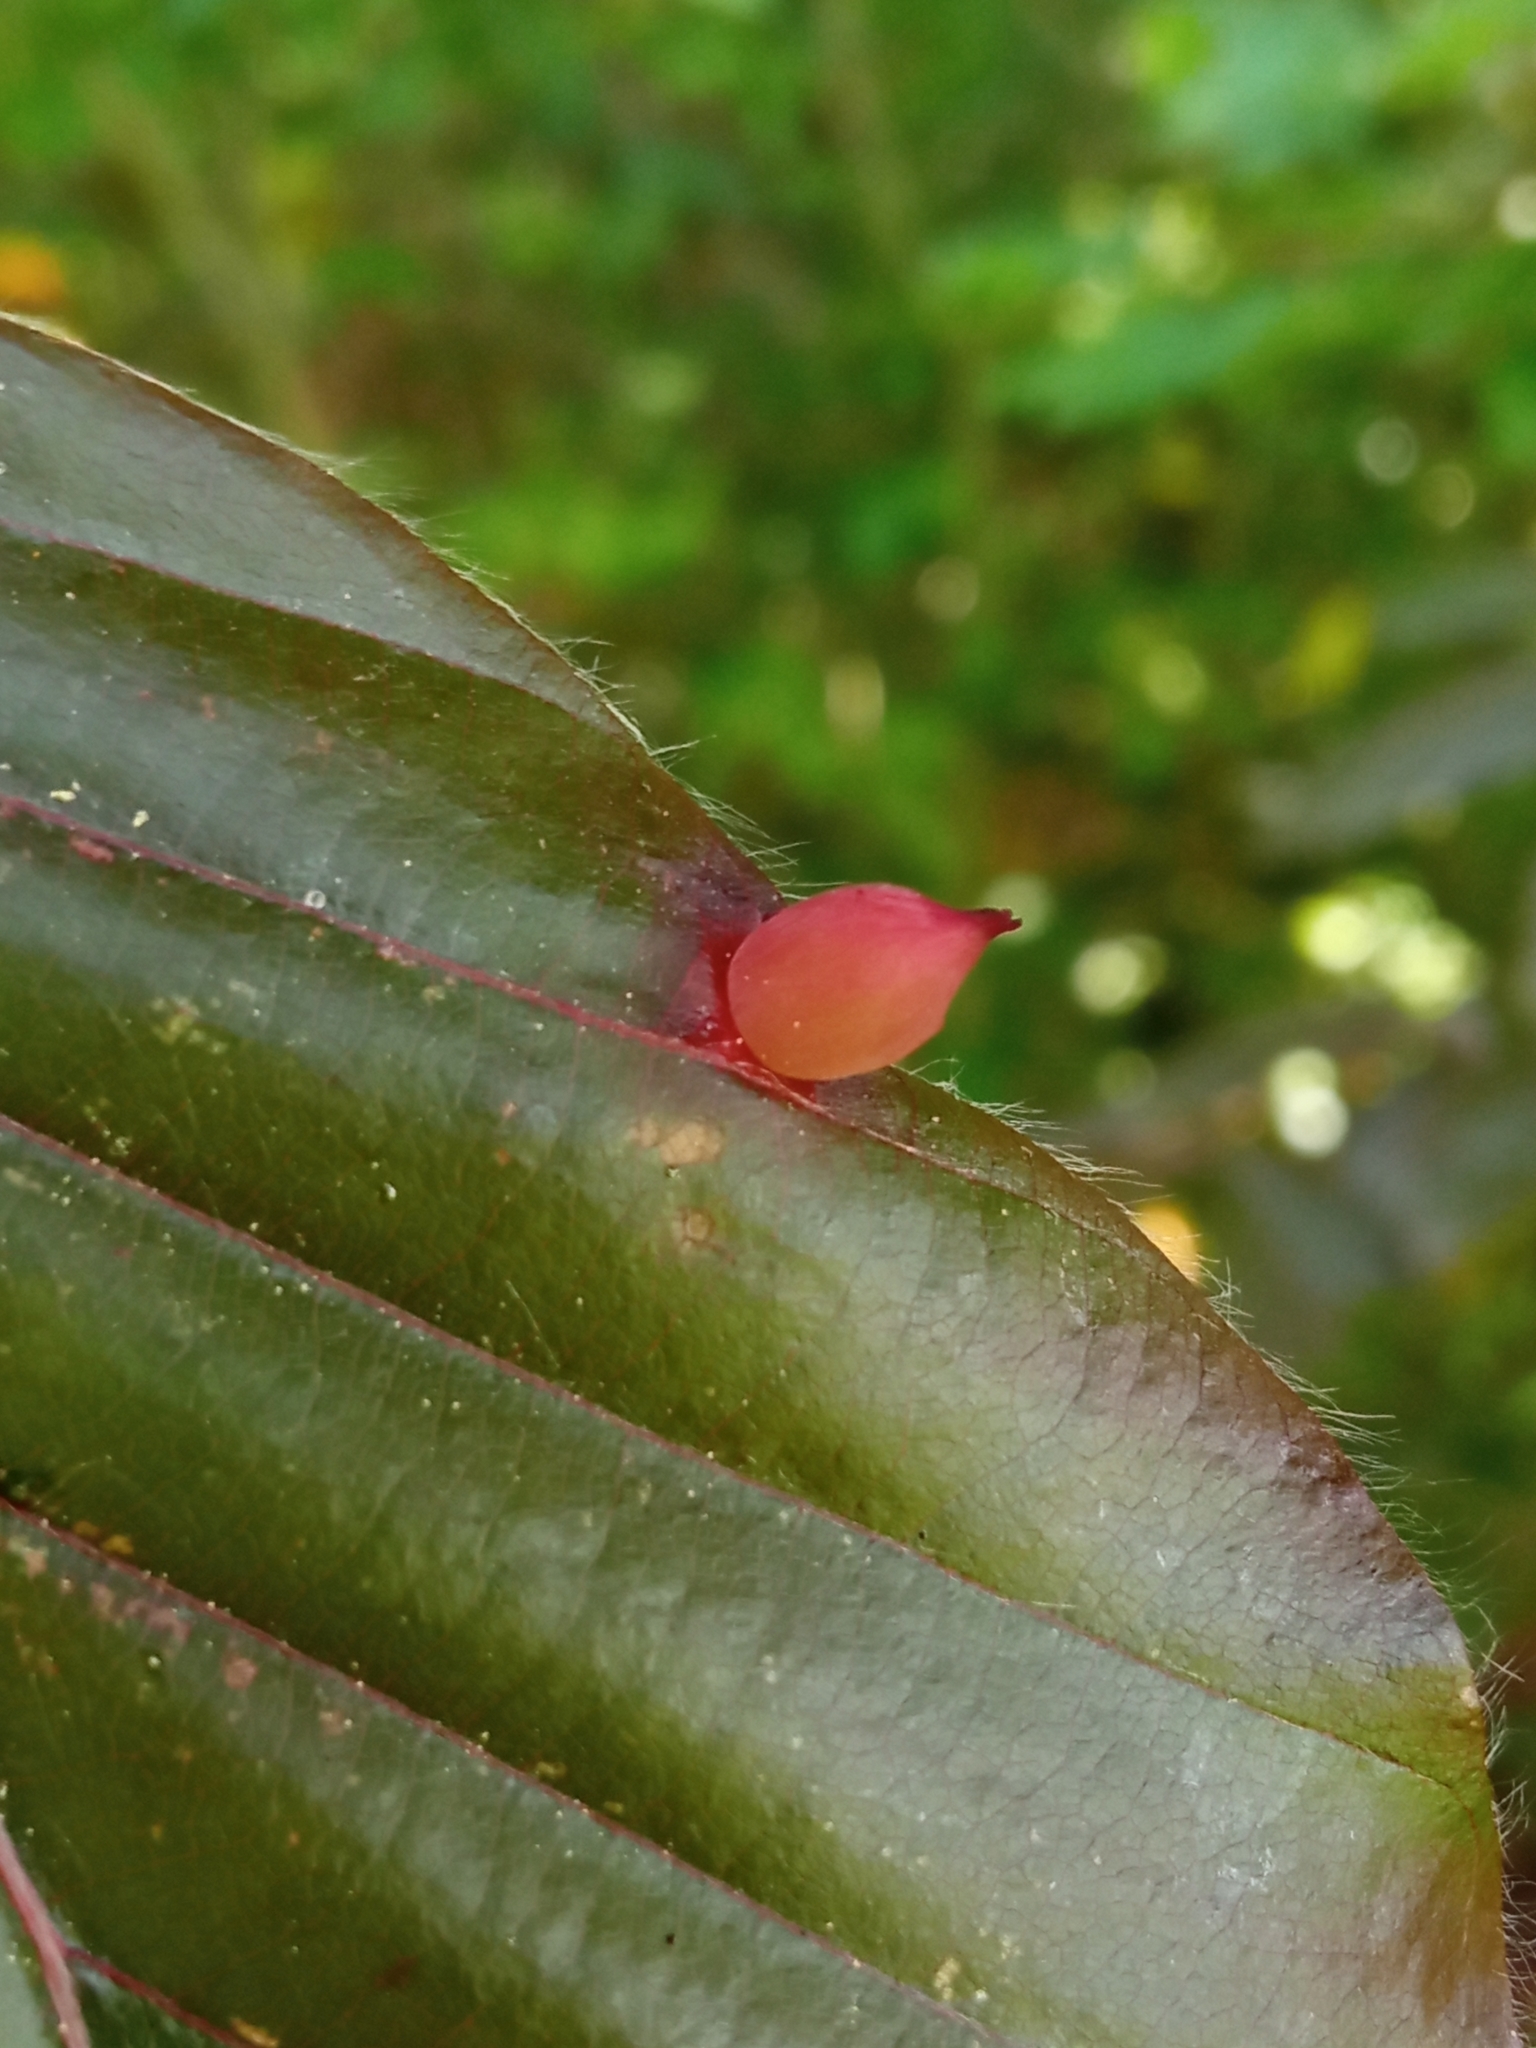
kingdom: Animalia
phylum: Arthropoda
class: Insecta
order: Diptera
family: Cecidomyiidae
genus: Mikiola
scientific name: Mikiola fagi
